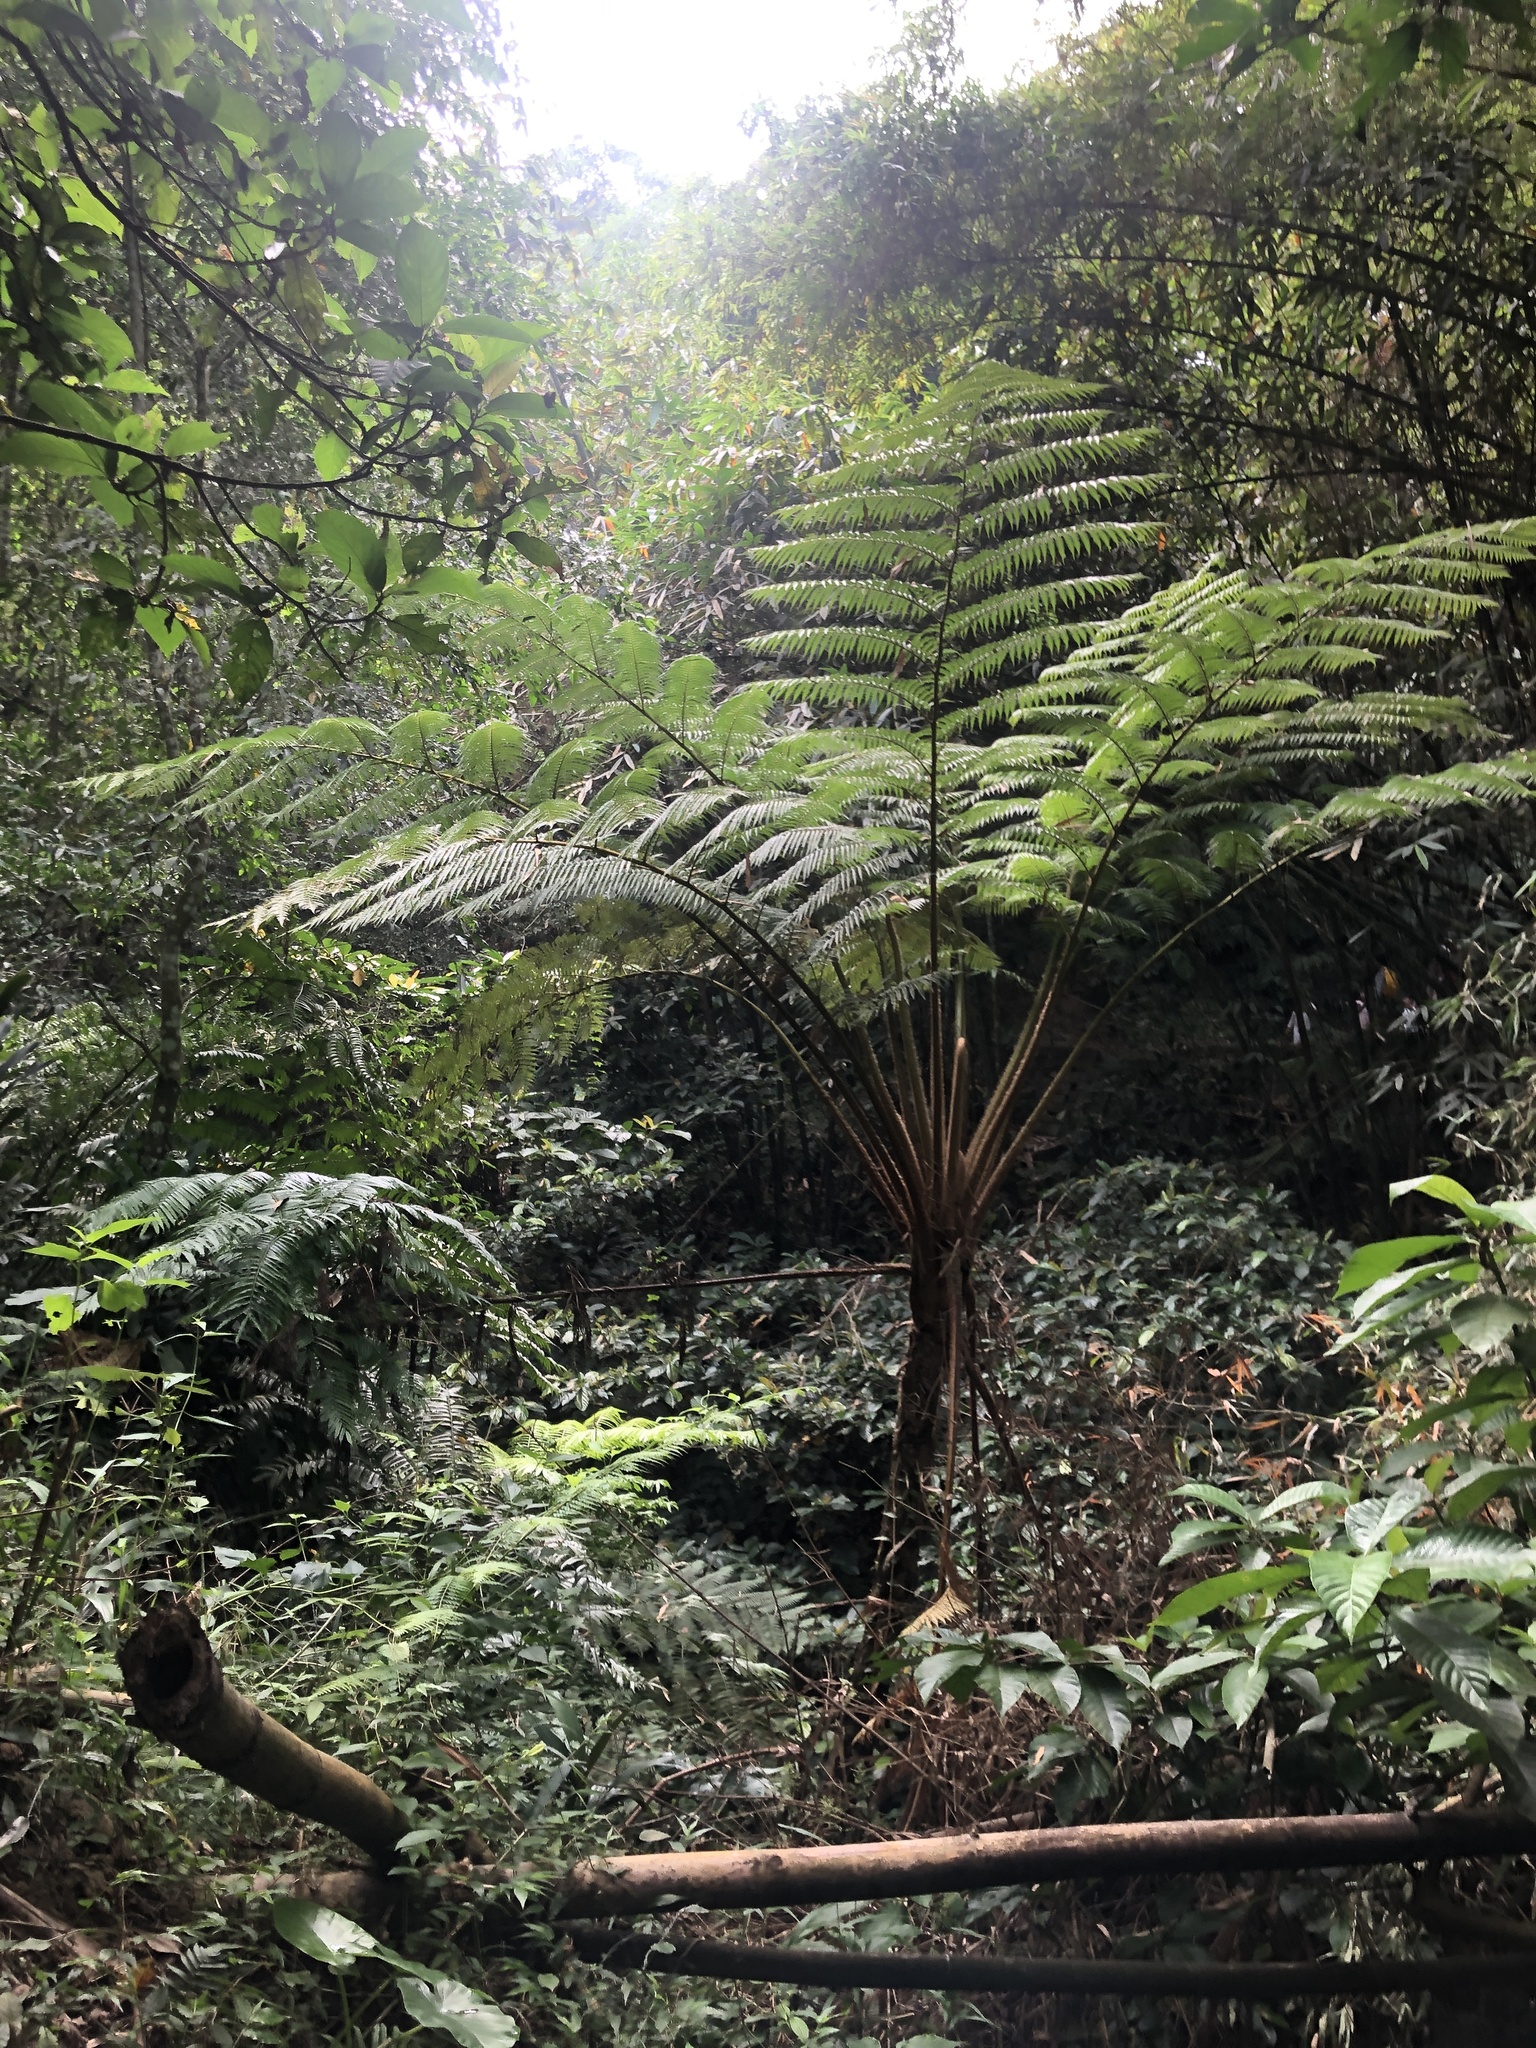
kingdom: Plantae
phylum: Tracheophyta
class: Polypodiopsida
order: Cyatheales
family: Cyatheaceae
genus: Alsophila
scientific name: Alsophila lepifera
